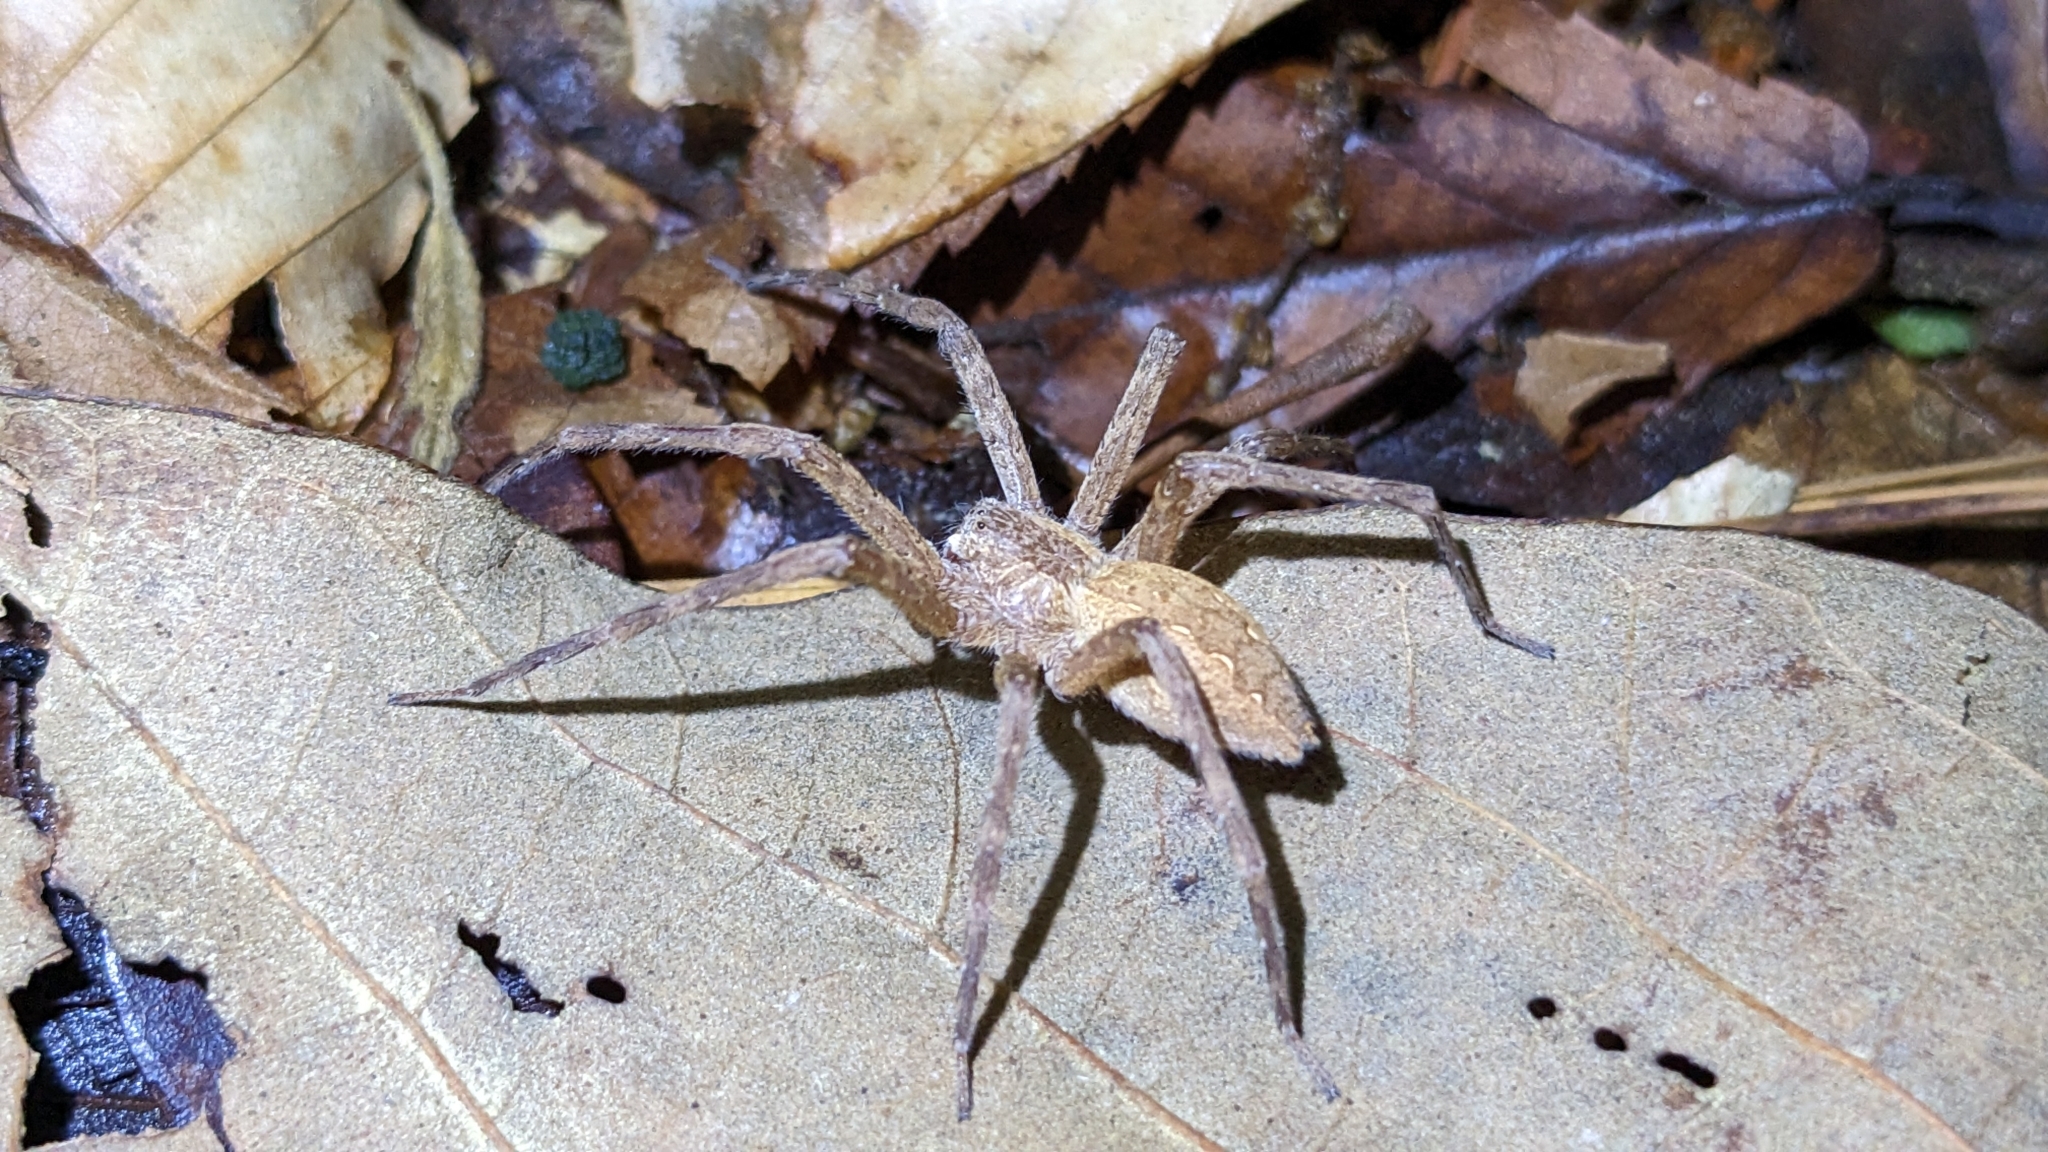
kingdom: Animalia
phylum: Arthropoda
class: Arachnida
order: Araneae
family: Pisauridae
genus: Pisaurina
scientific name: Pisaurina mira
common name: American nursery web spider
